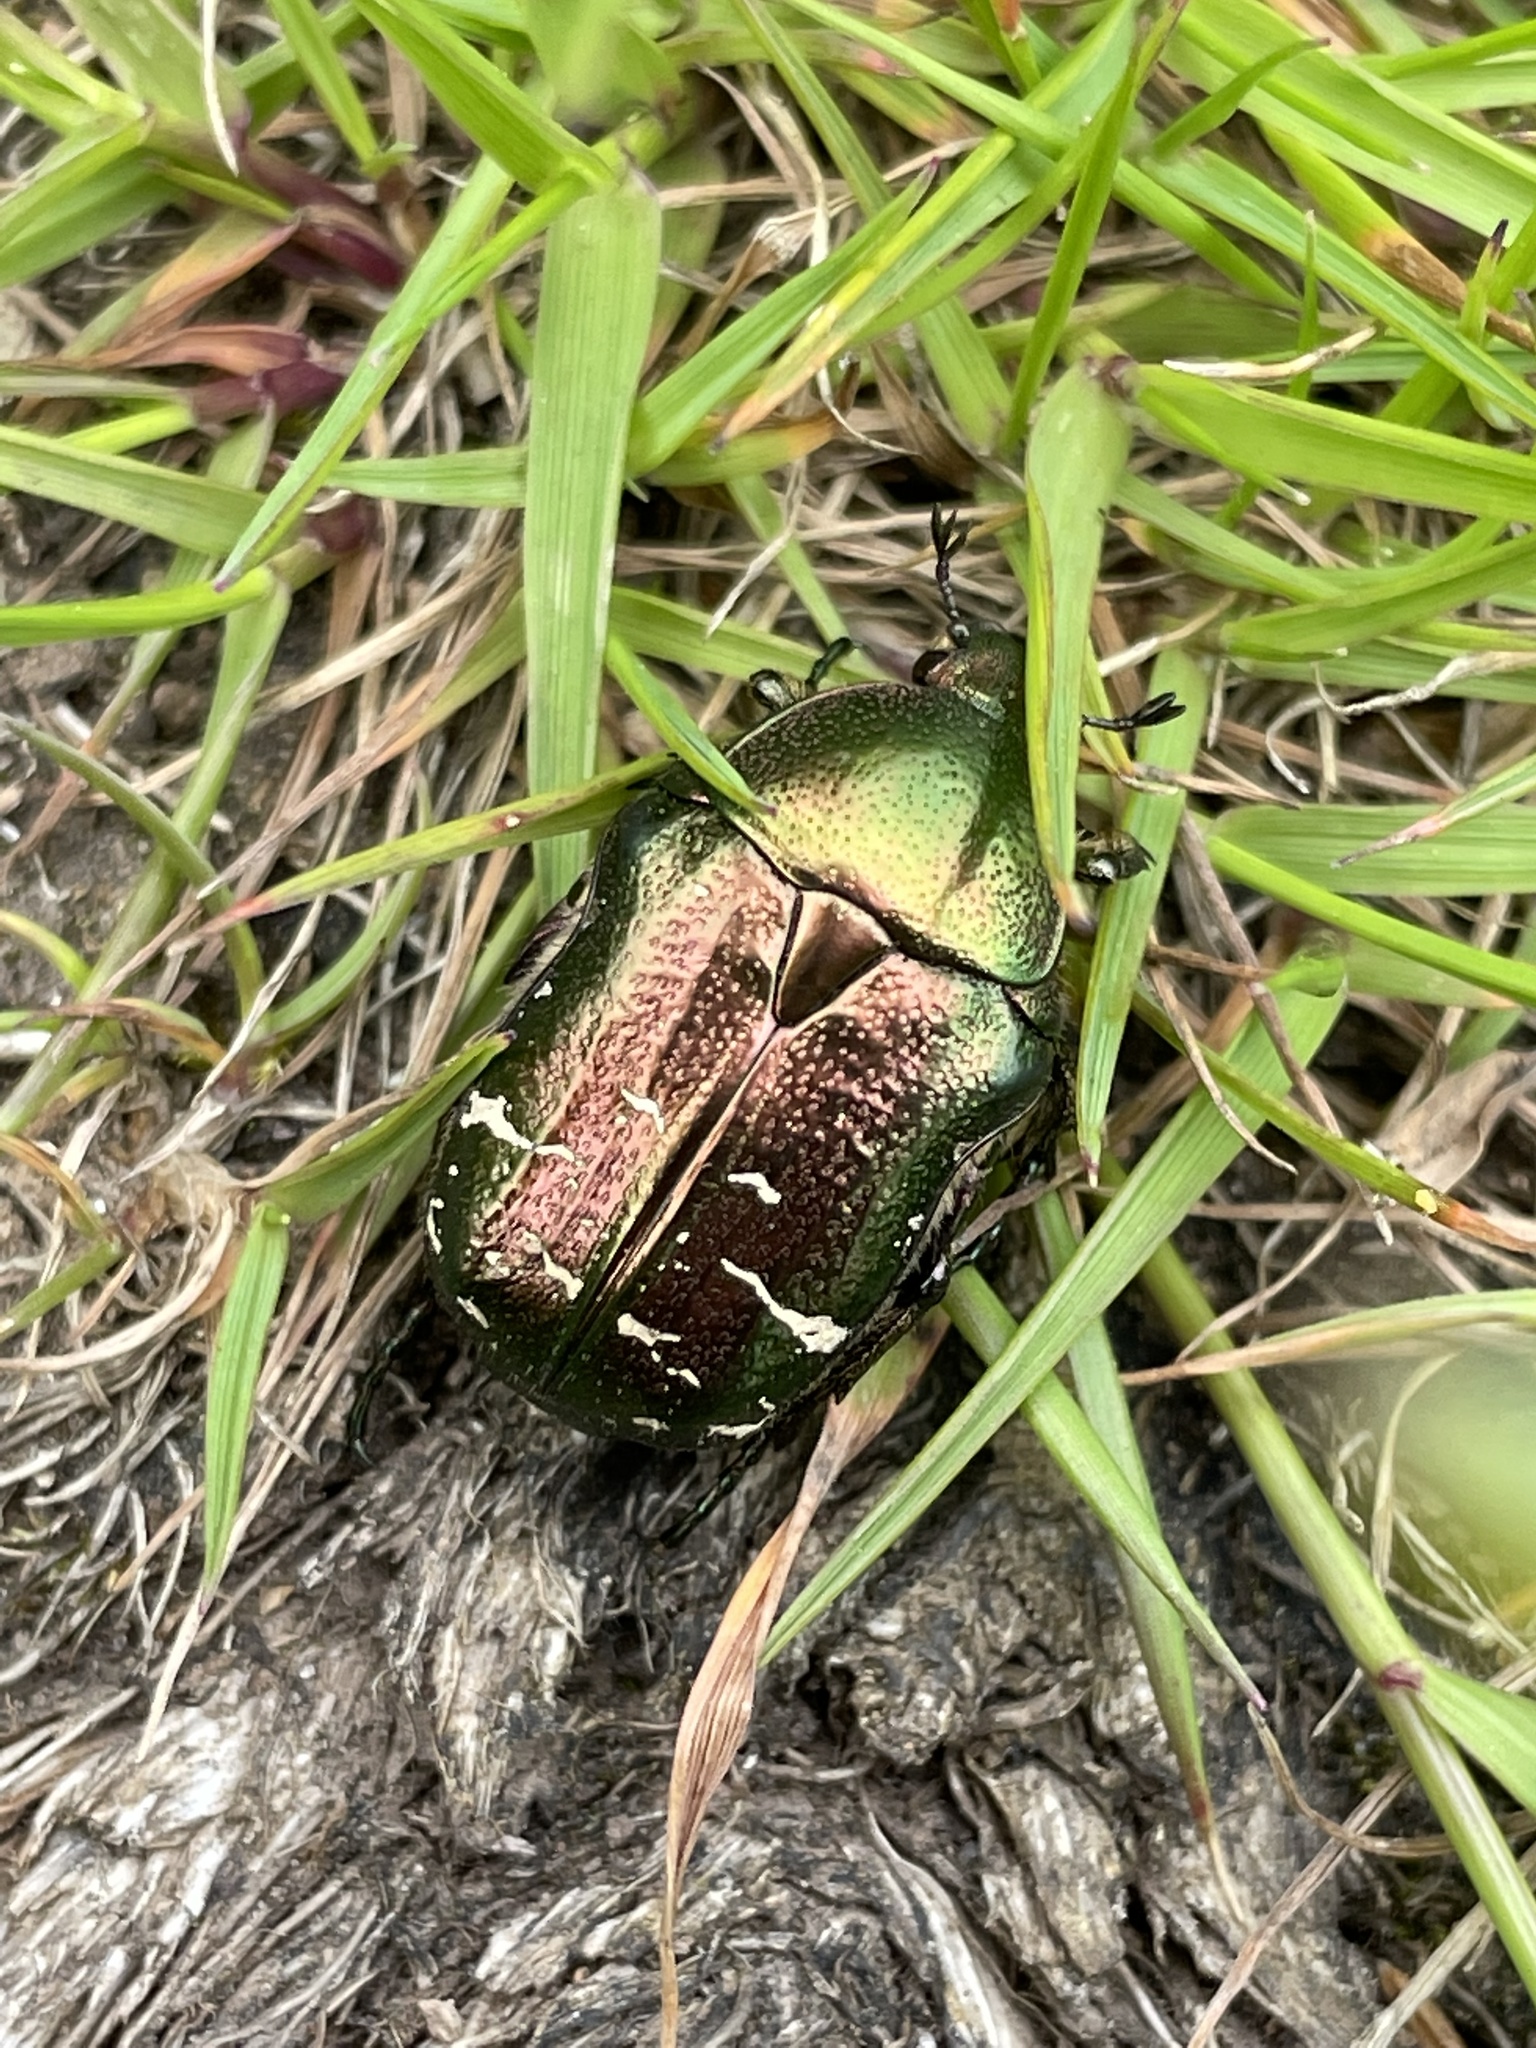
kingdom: Animalia
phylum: Arthropoda
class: Insecta
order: Coleoptera
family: Scarabaeidae
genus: Cetonia
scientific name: Cetonia aurata
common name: Rose chafer
